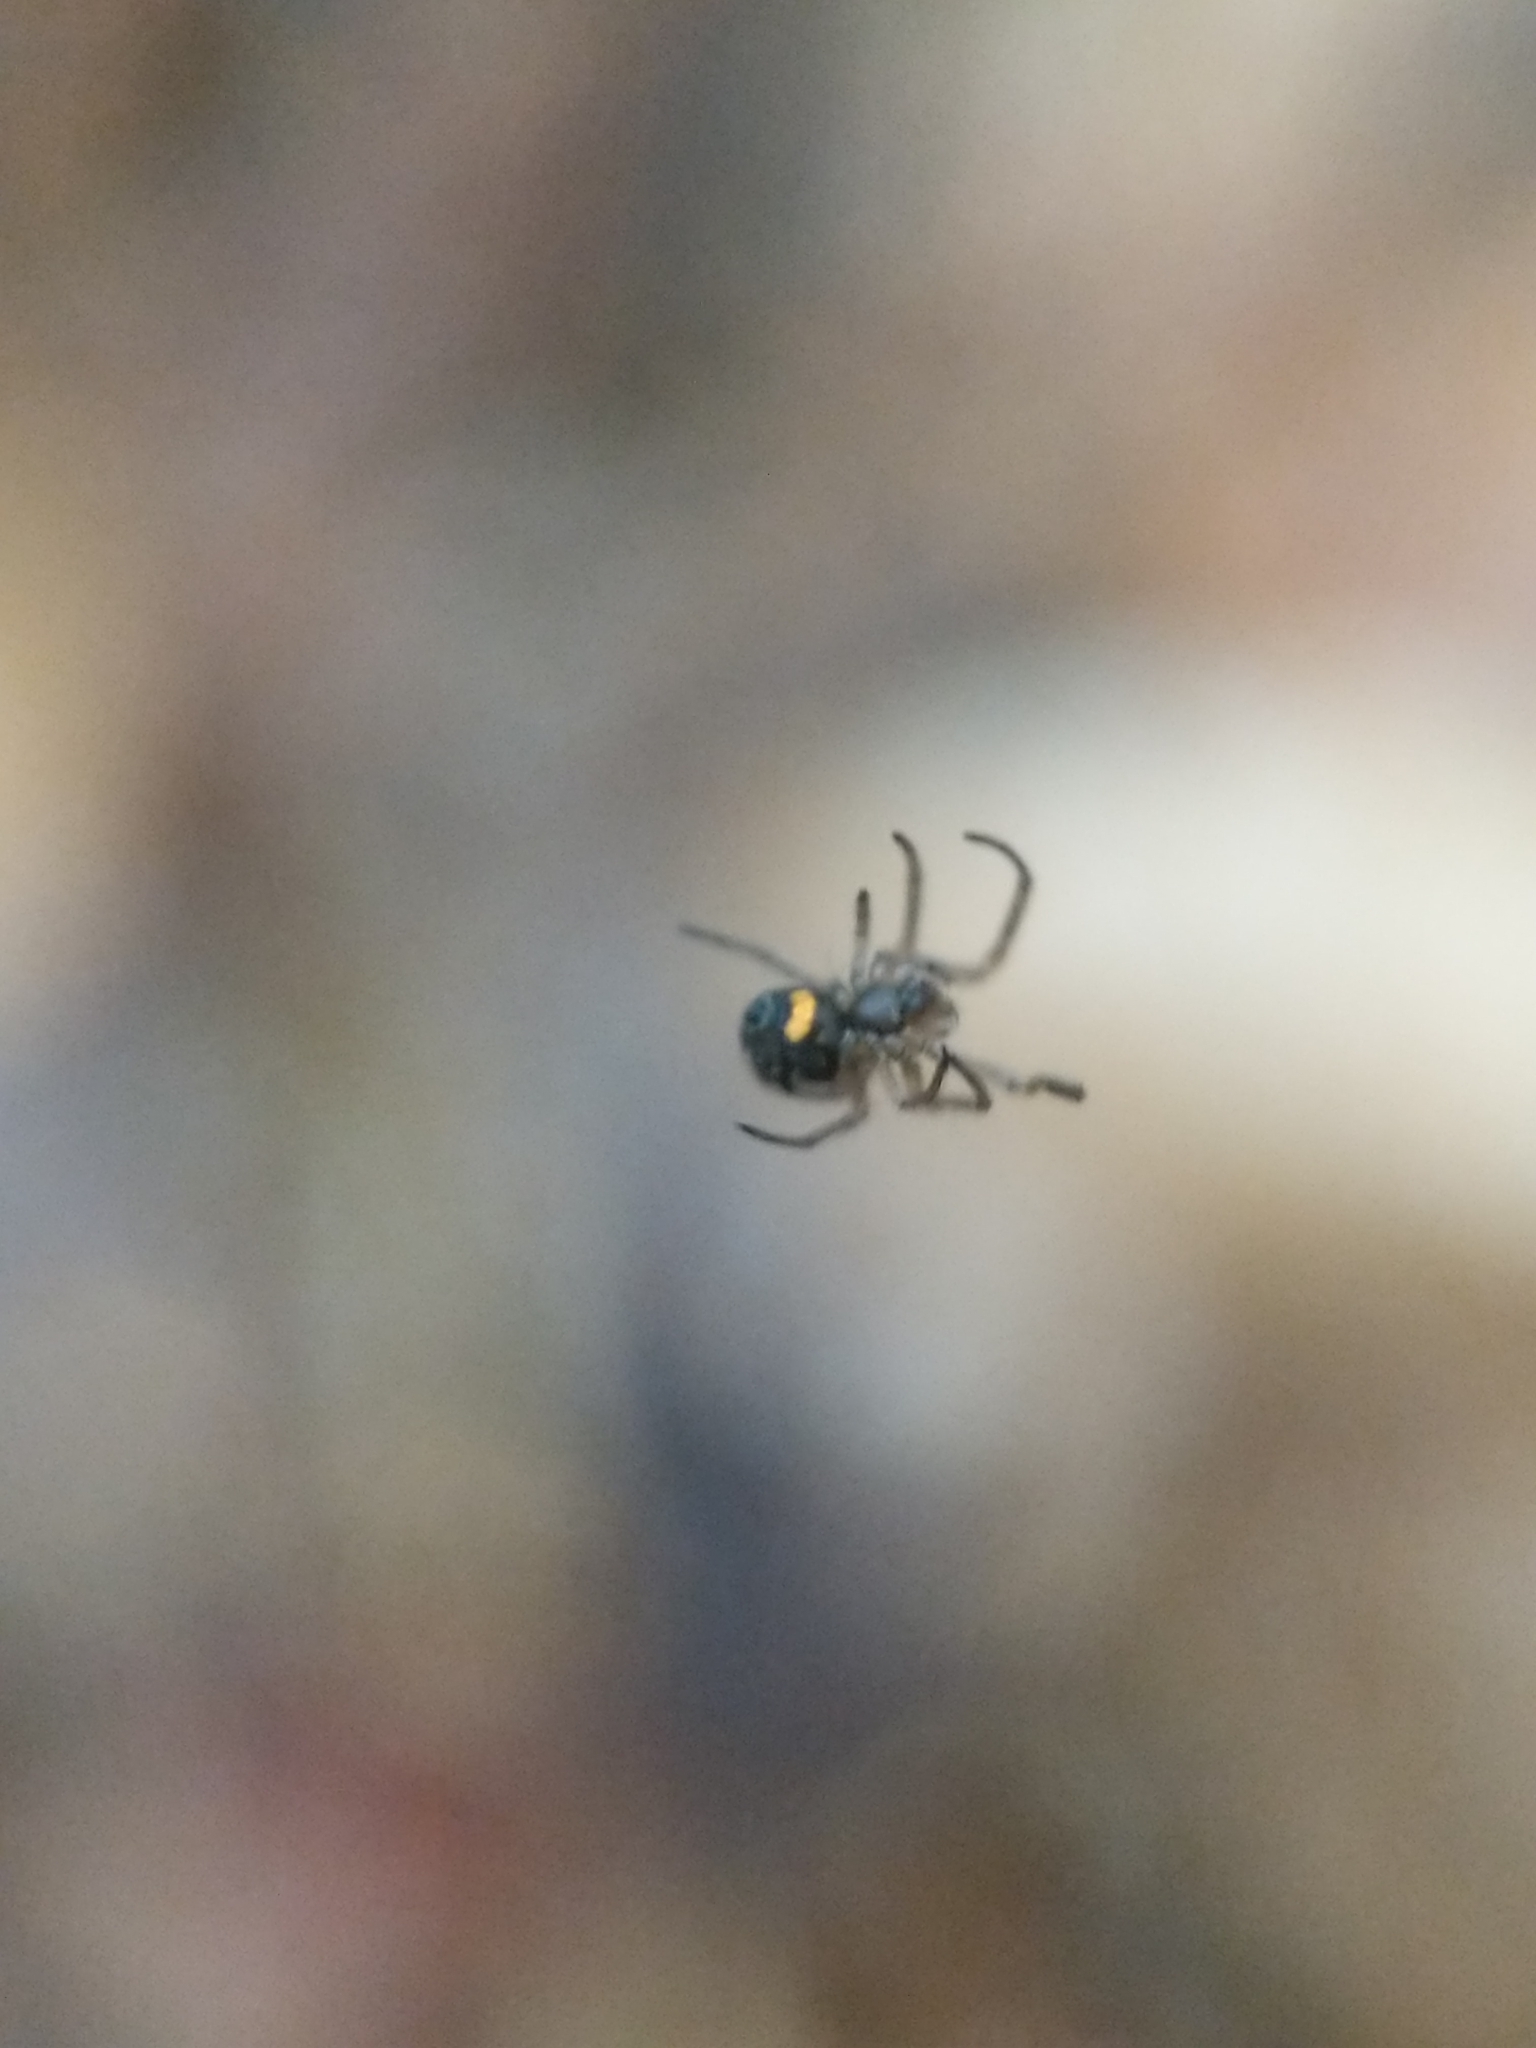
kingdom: Animalia
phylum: Arthropoda
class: Arachnida
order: Araneae
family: Tetragnathidae
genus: Leucauge
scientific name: Leucauge venusta
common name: Longjawed orb weavers
